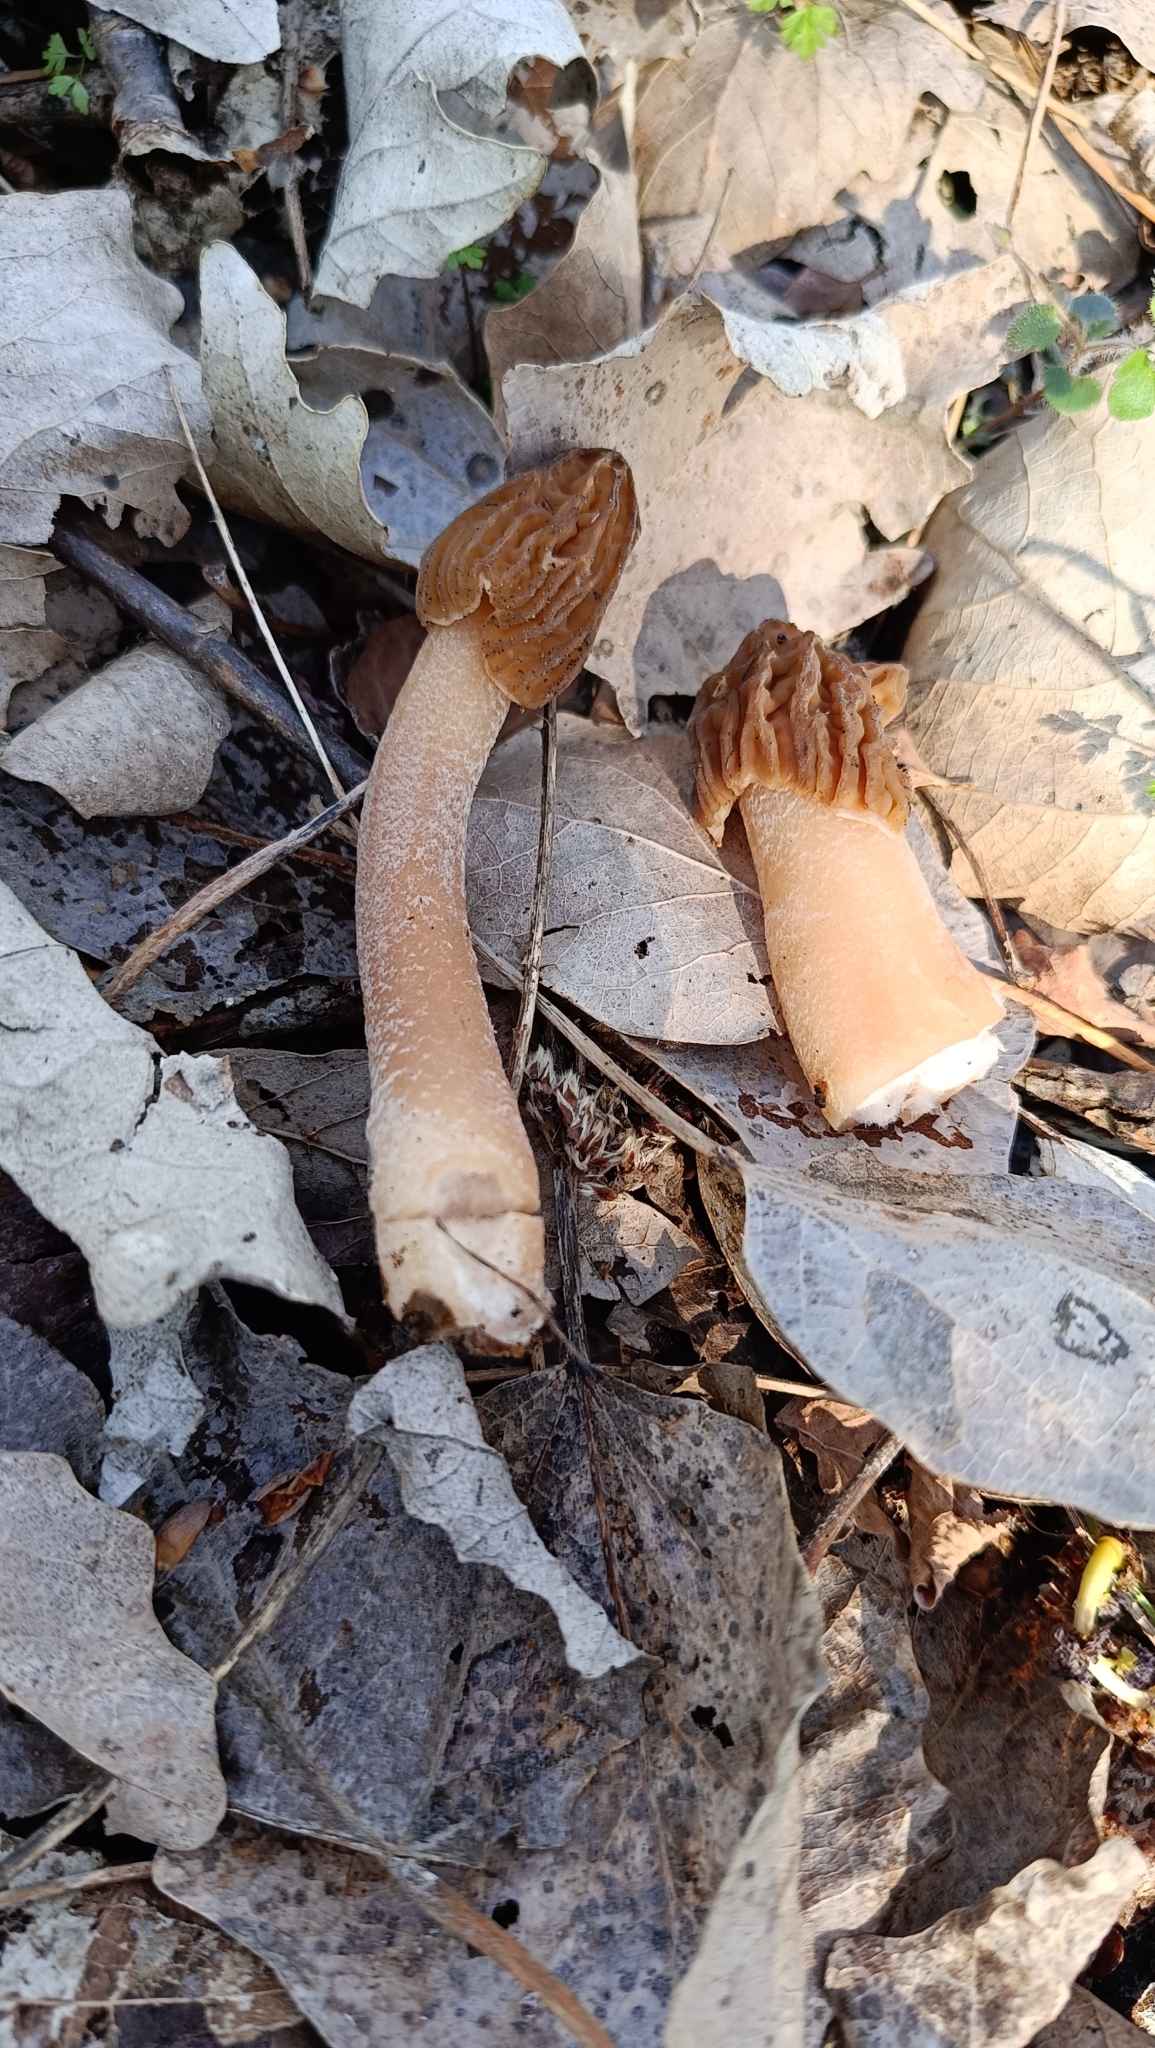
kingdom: Fungi
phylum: Ascomycota
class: Pezizomycetes
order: Pezizales
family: Morchellaceae
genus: Verpa
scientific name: Verpa bohemica
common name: Wrinkled thimble morel
